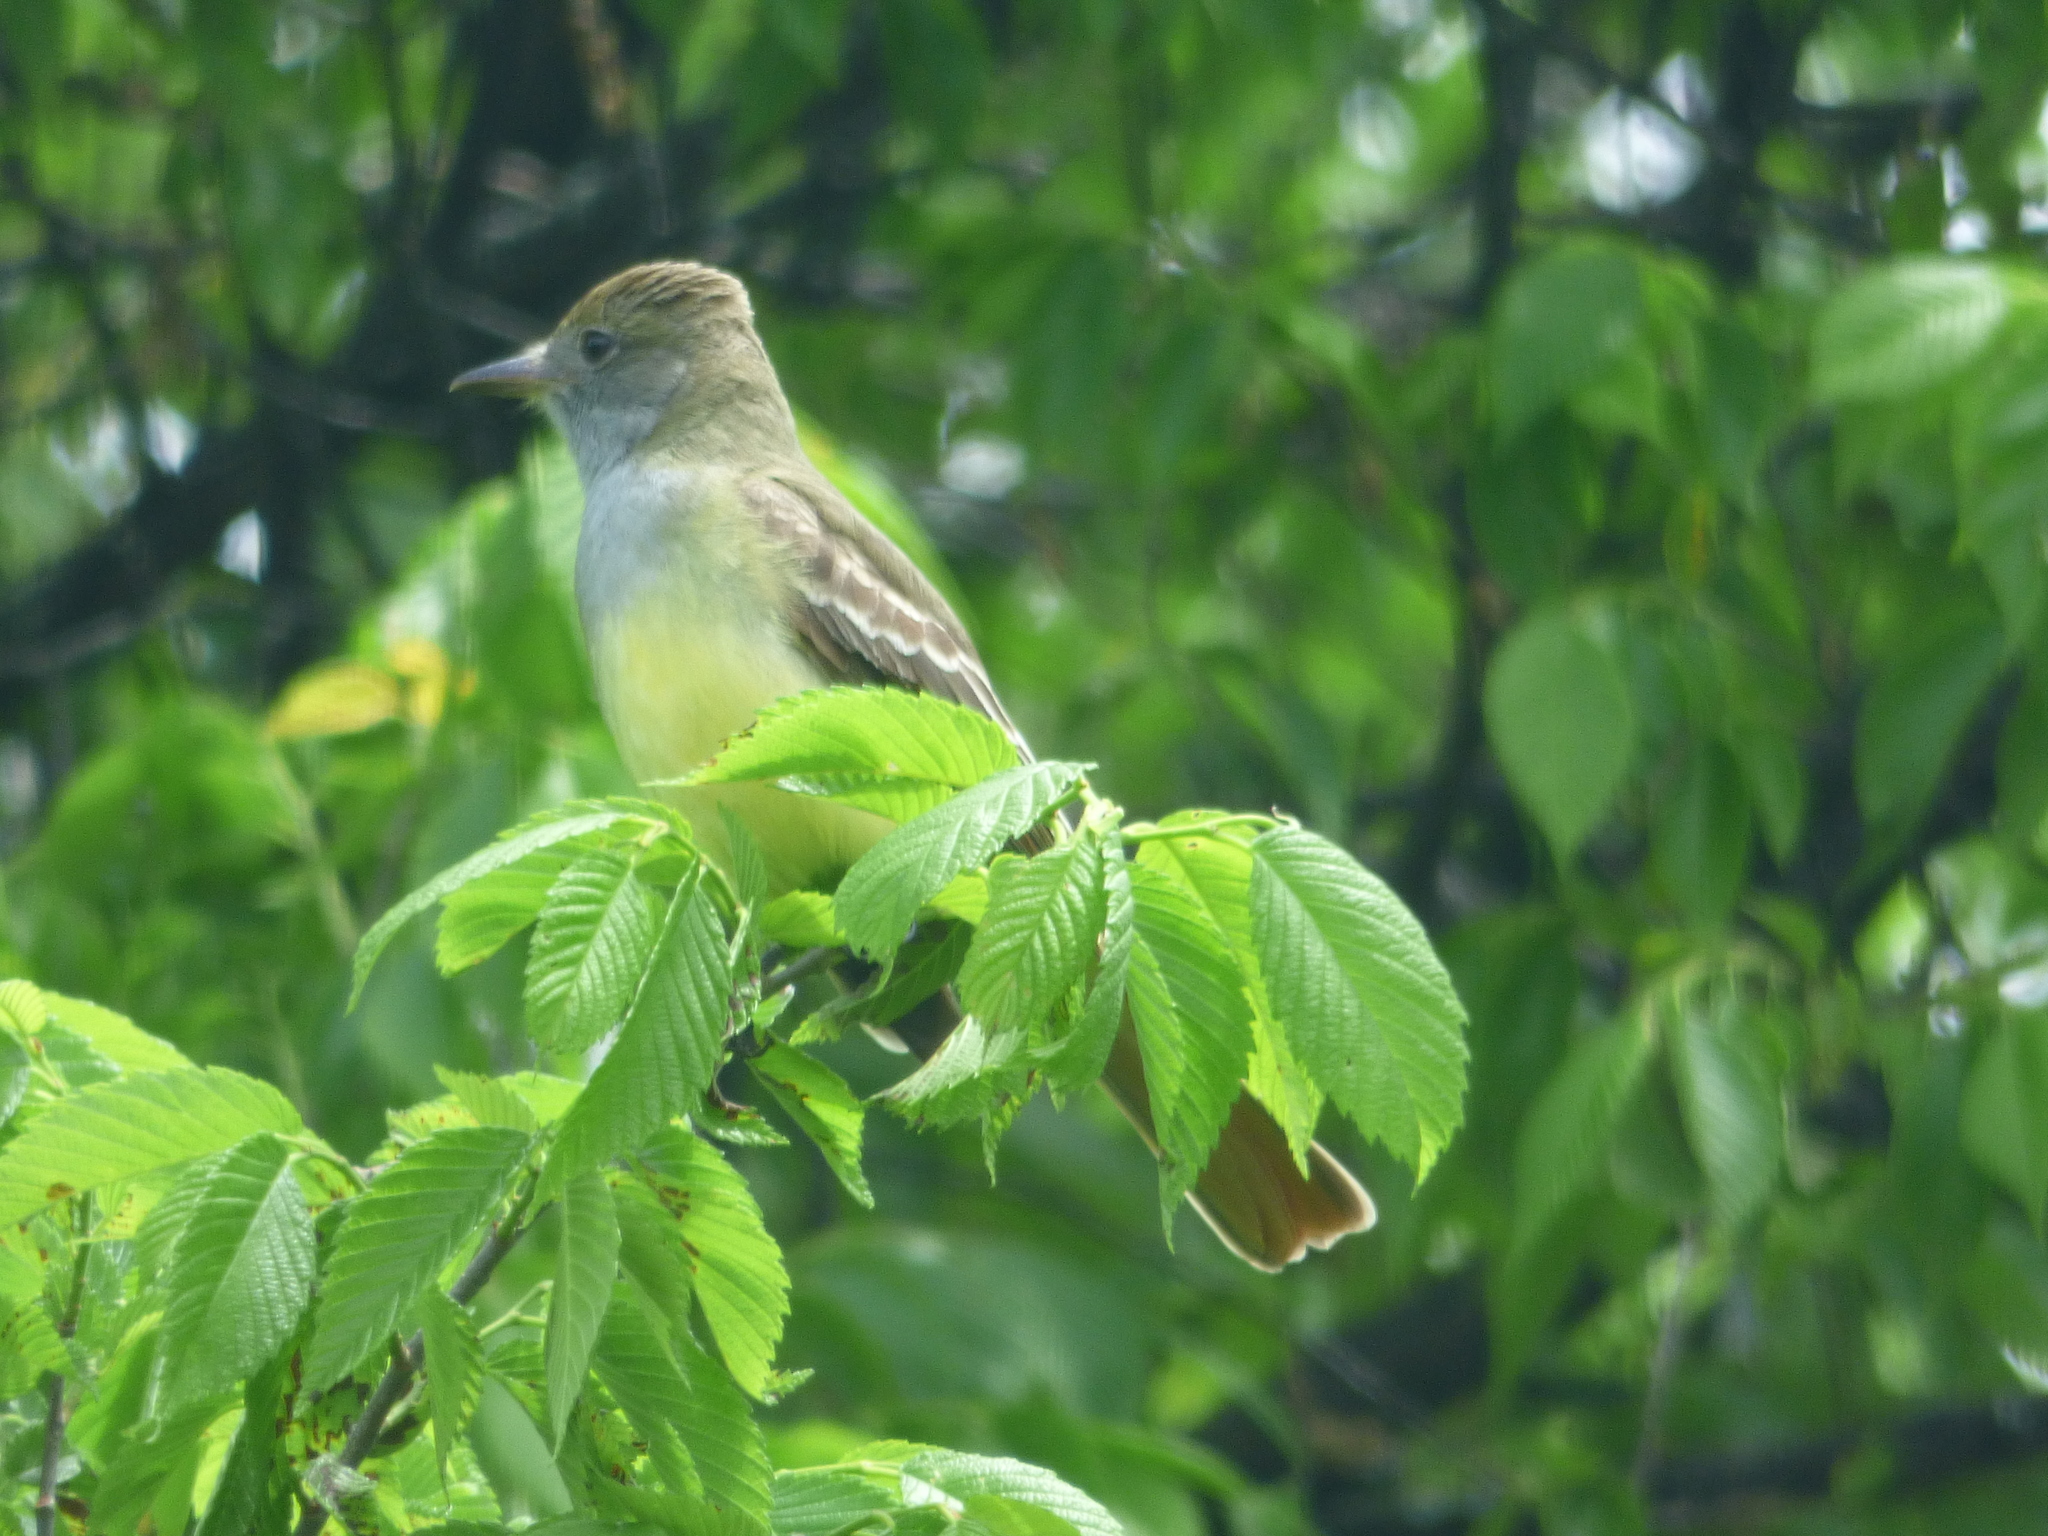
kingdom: Animalia
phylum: Chordata
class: Aves
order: Passeriformes
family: Tyrannidae
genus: Myiarchus
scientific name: Myiarchus crinitus
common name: Great crested flycatcher
